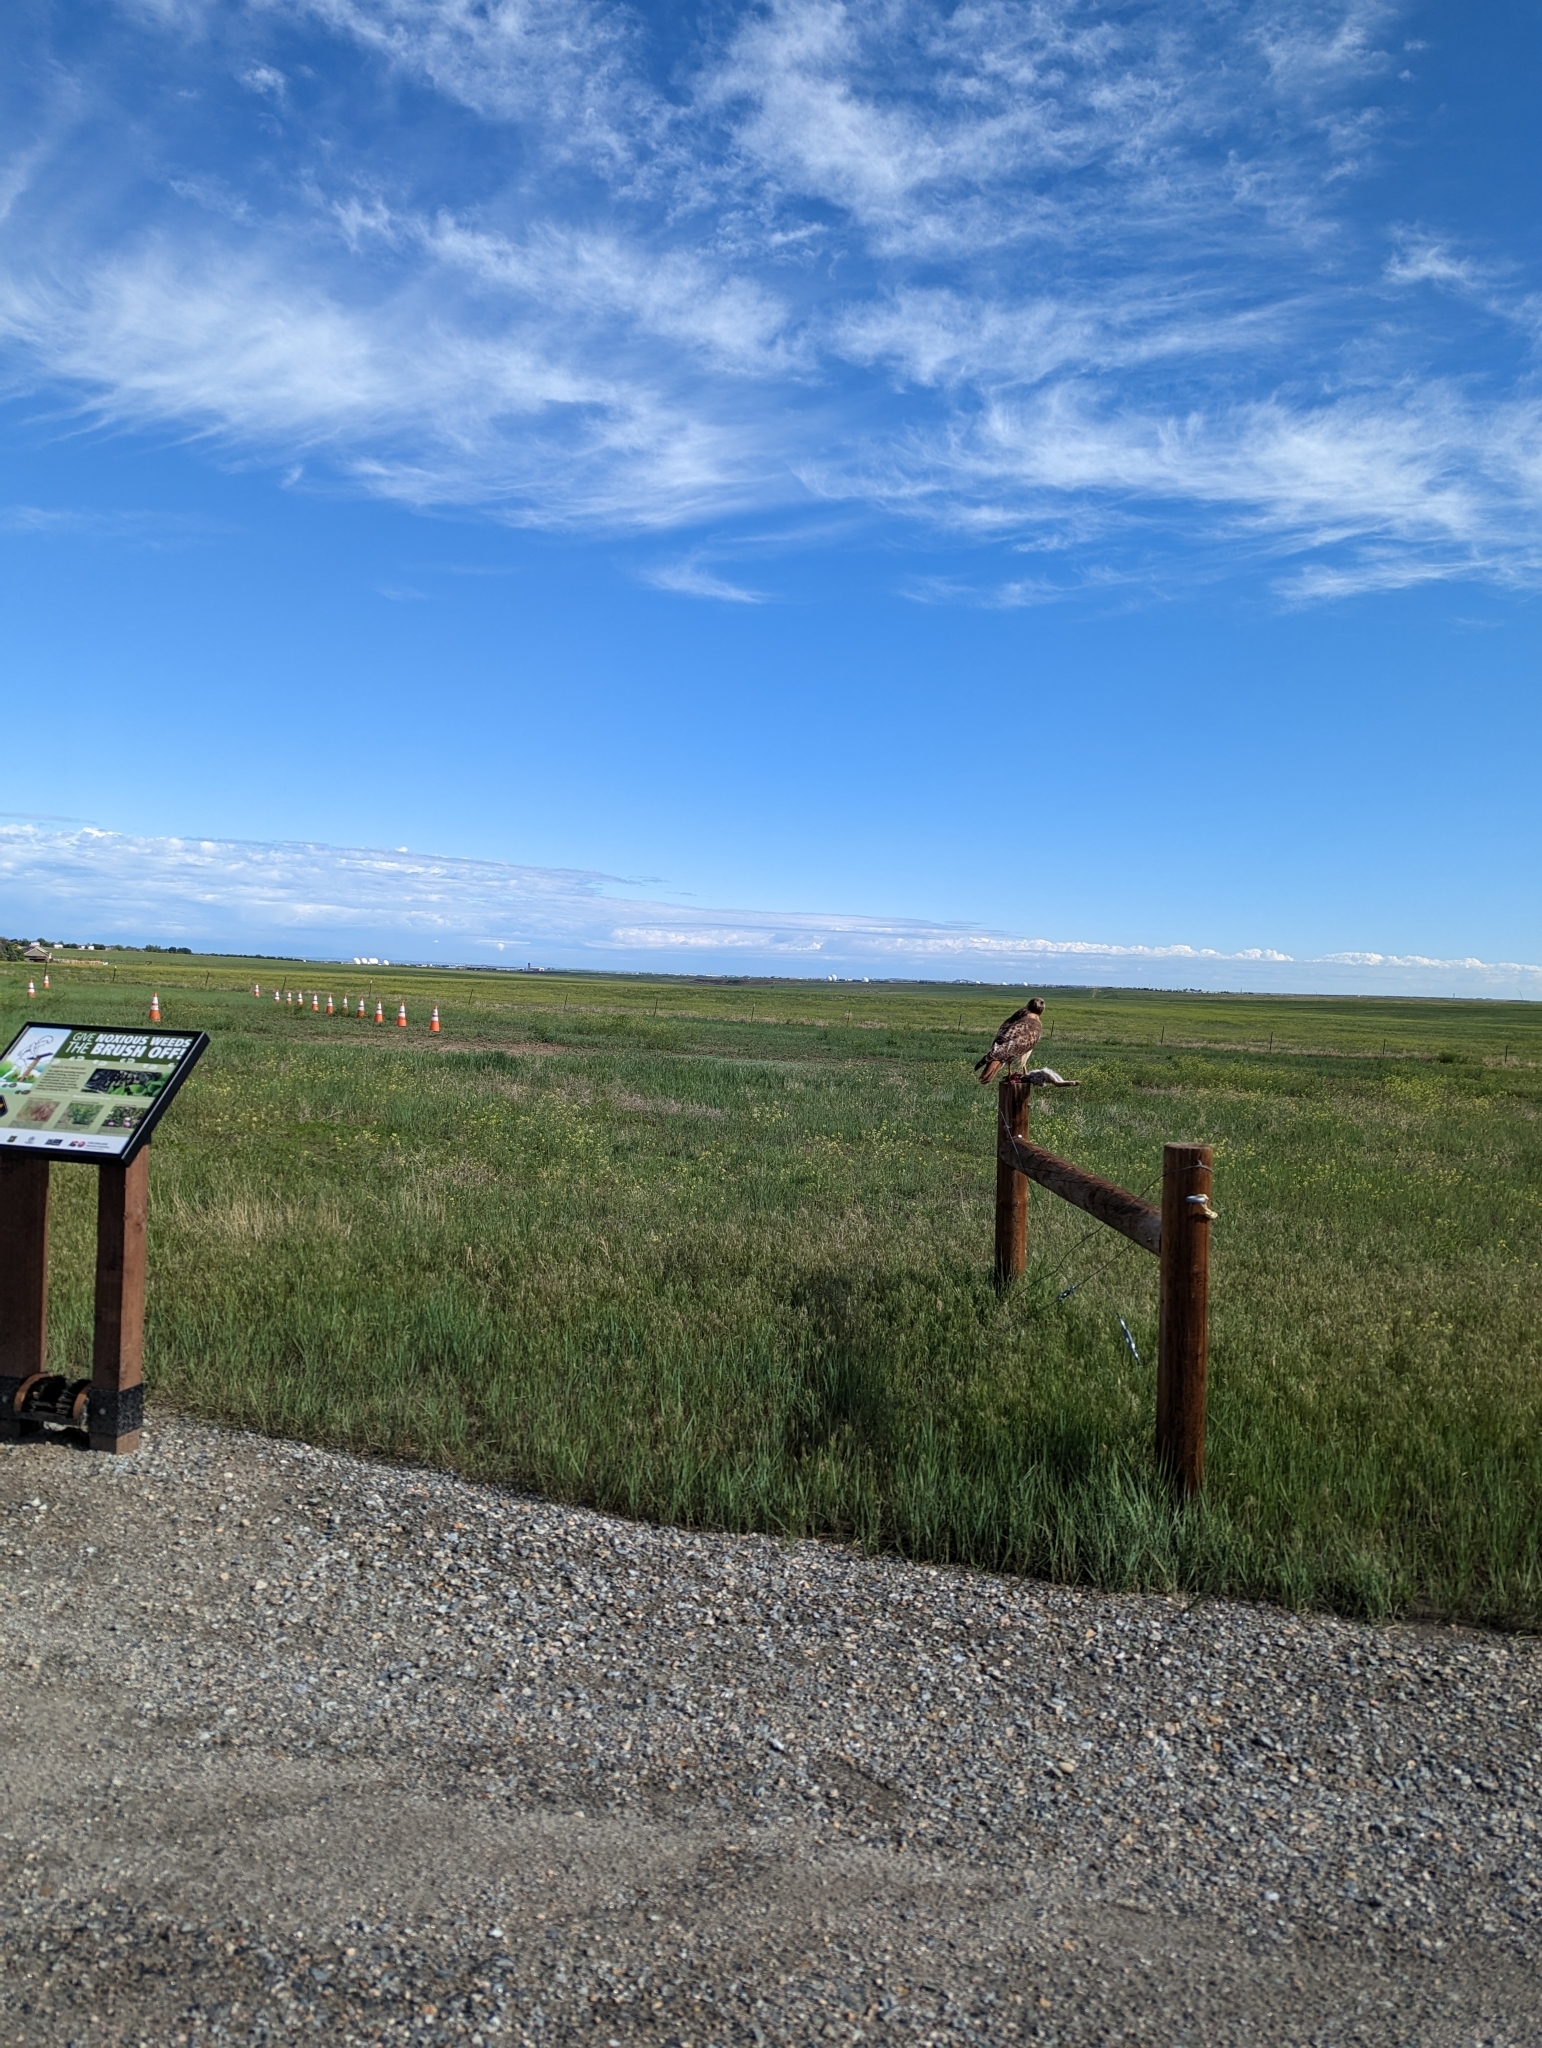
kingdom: Animalia
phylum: Chordata
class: Aves
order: Accipitriformes
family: Accipitridae
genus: Buteo
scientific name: Buteo jamaicensis
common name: Red-tailed hawk
